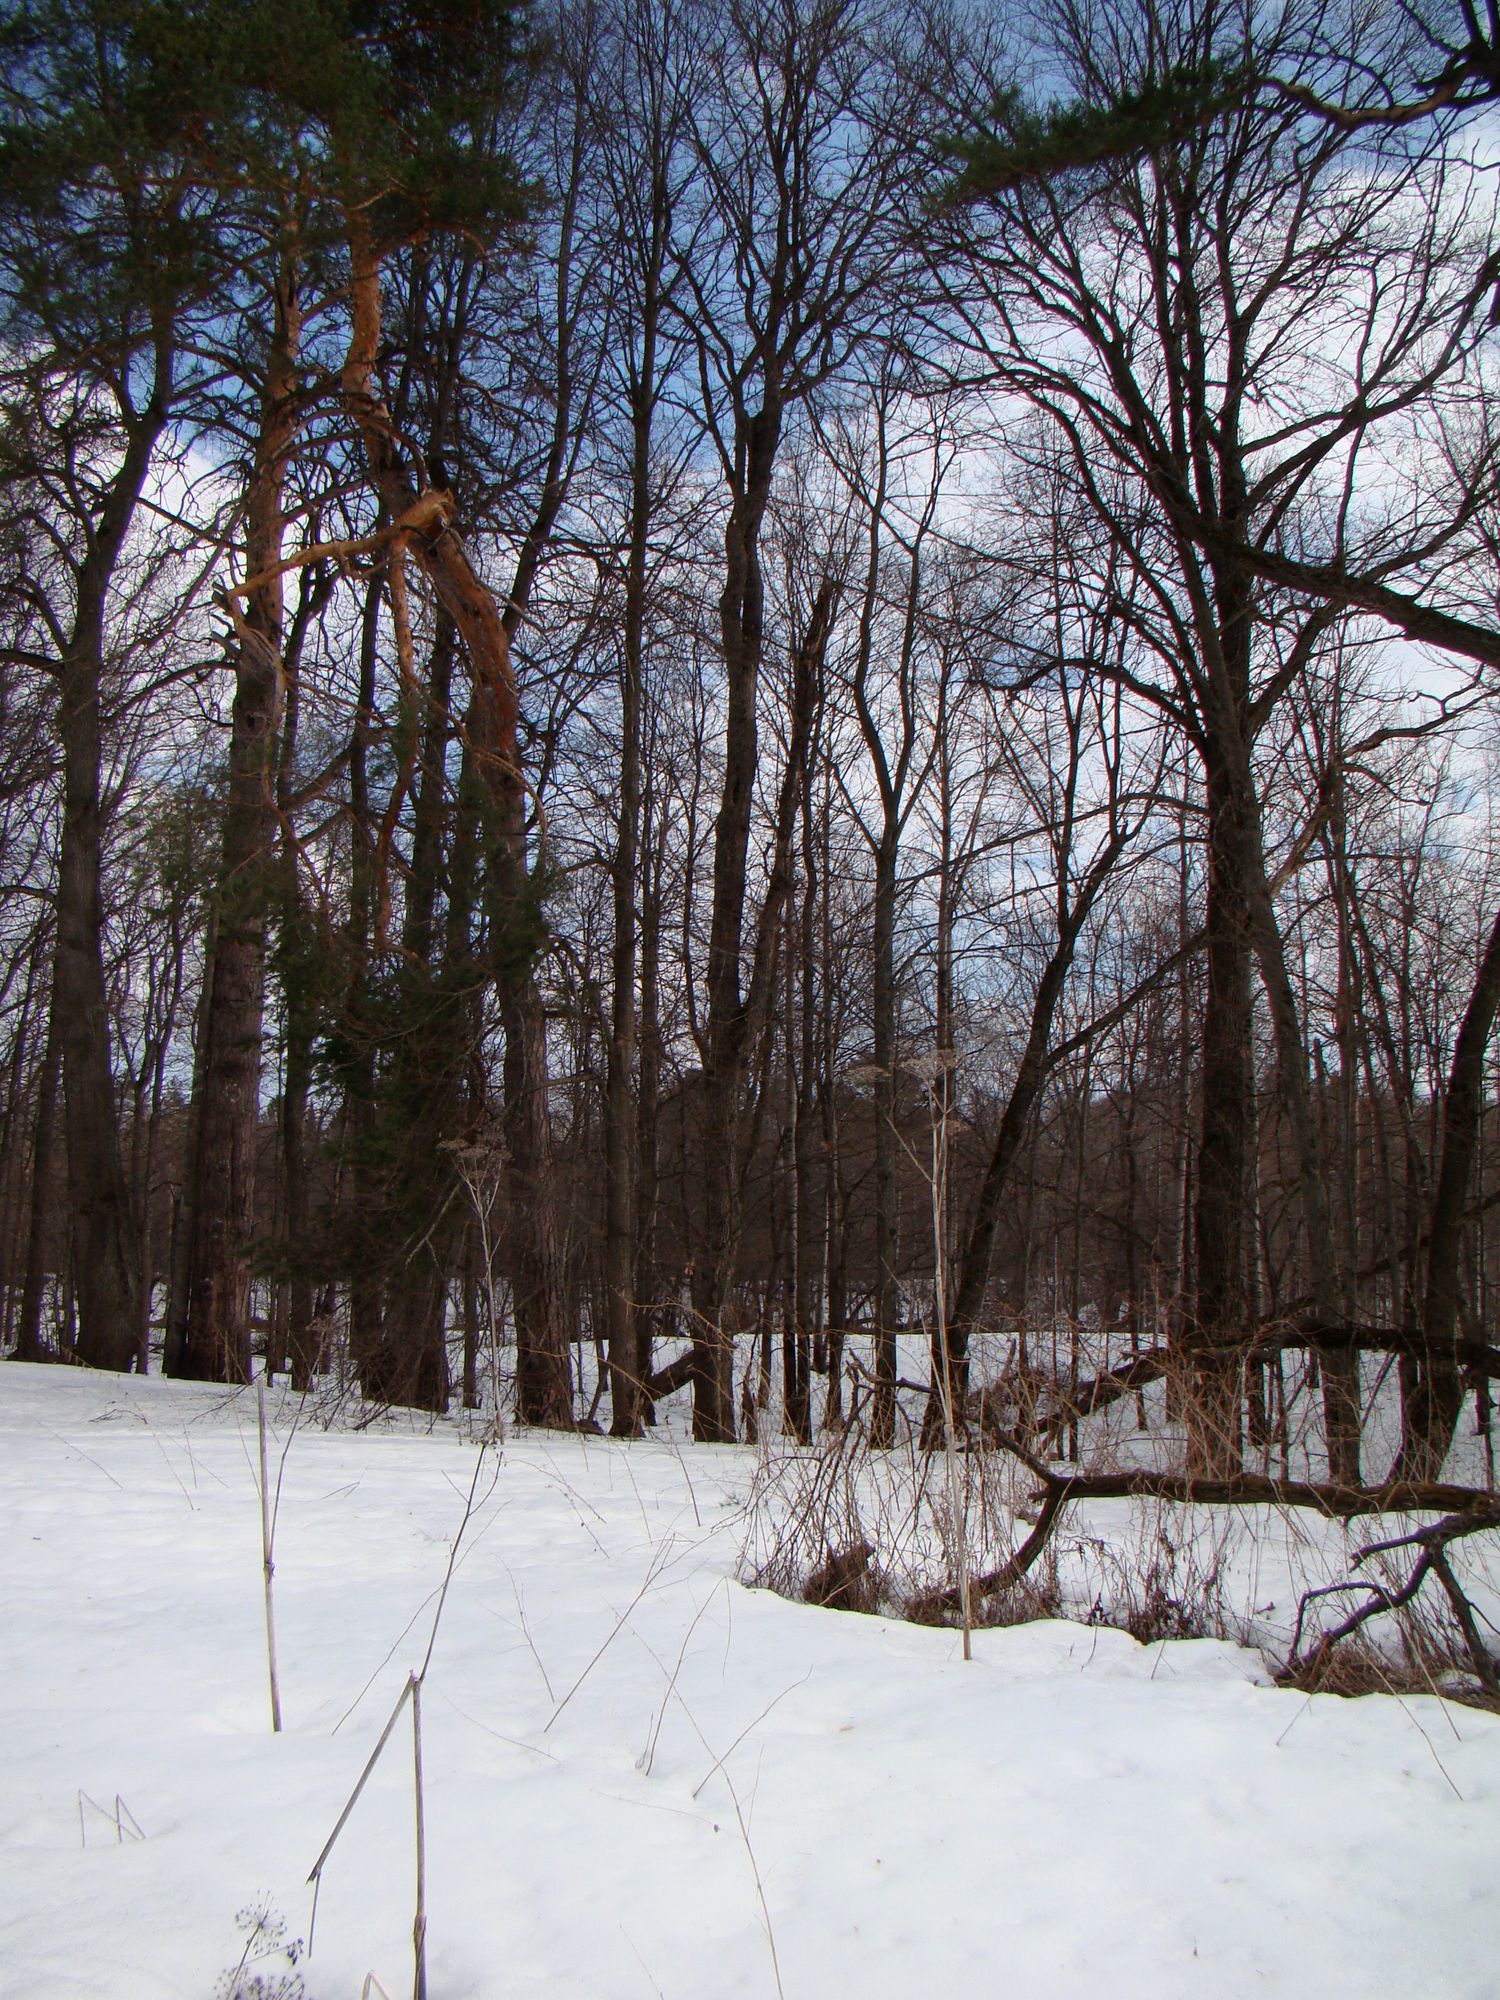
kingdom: Plantae
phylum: Tracheophyta
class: Magnoliopsida
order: Apiales
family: Apiaceae
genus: Angelica
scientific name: Angelica sylvestris
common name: Wild angelica
